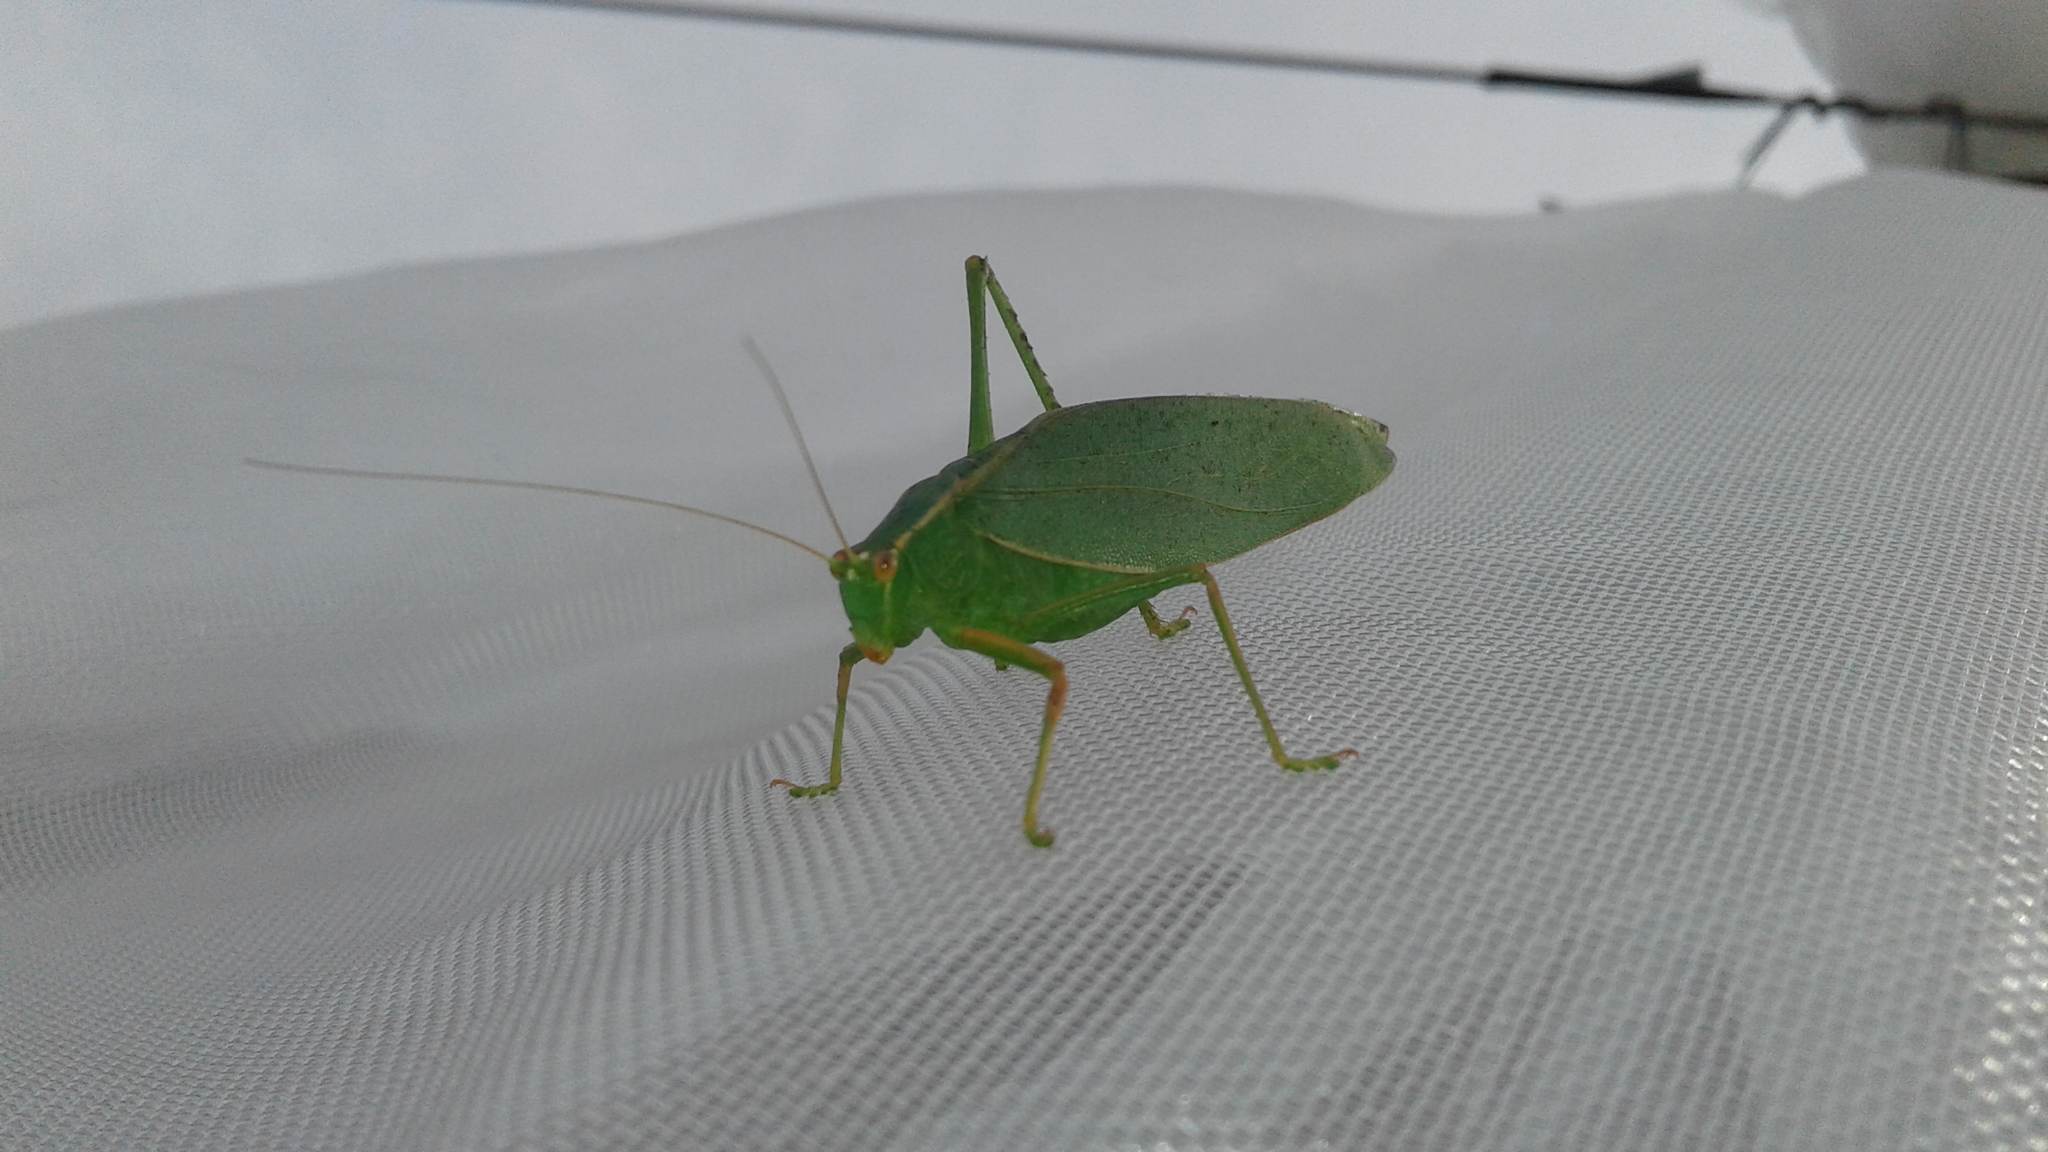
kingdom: Animalia
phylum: Arthropoda
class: Insecta
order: Orthoptera
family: Tettigoniidae
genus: Caedicia
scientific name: Caedicia simplex
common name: Common garden katydid
